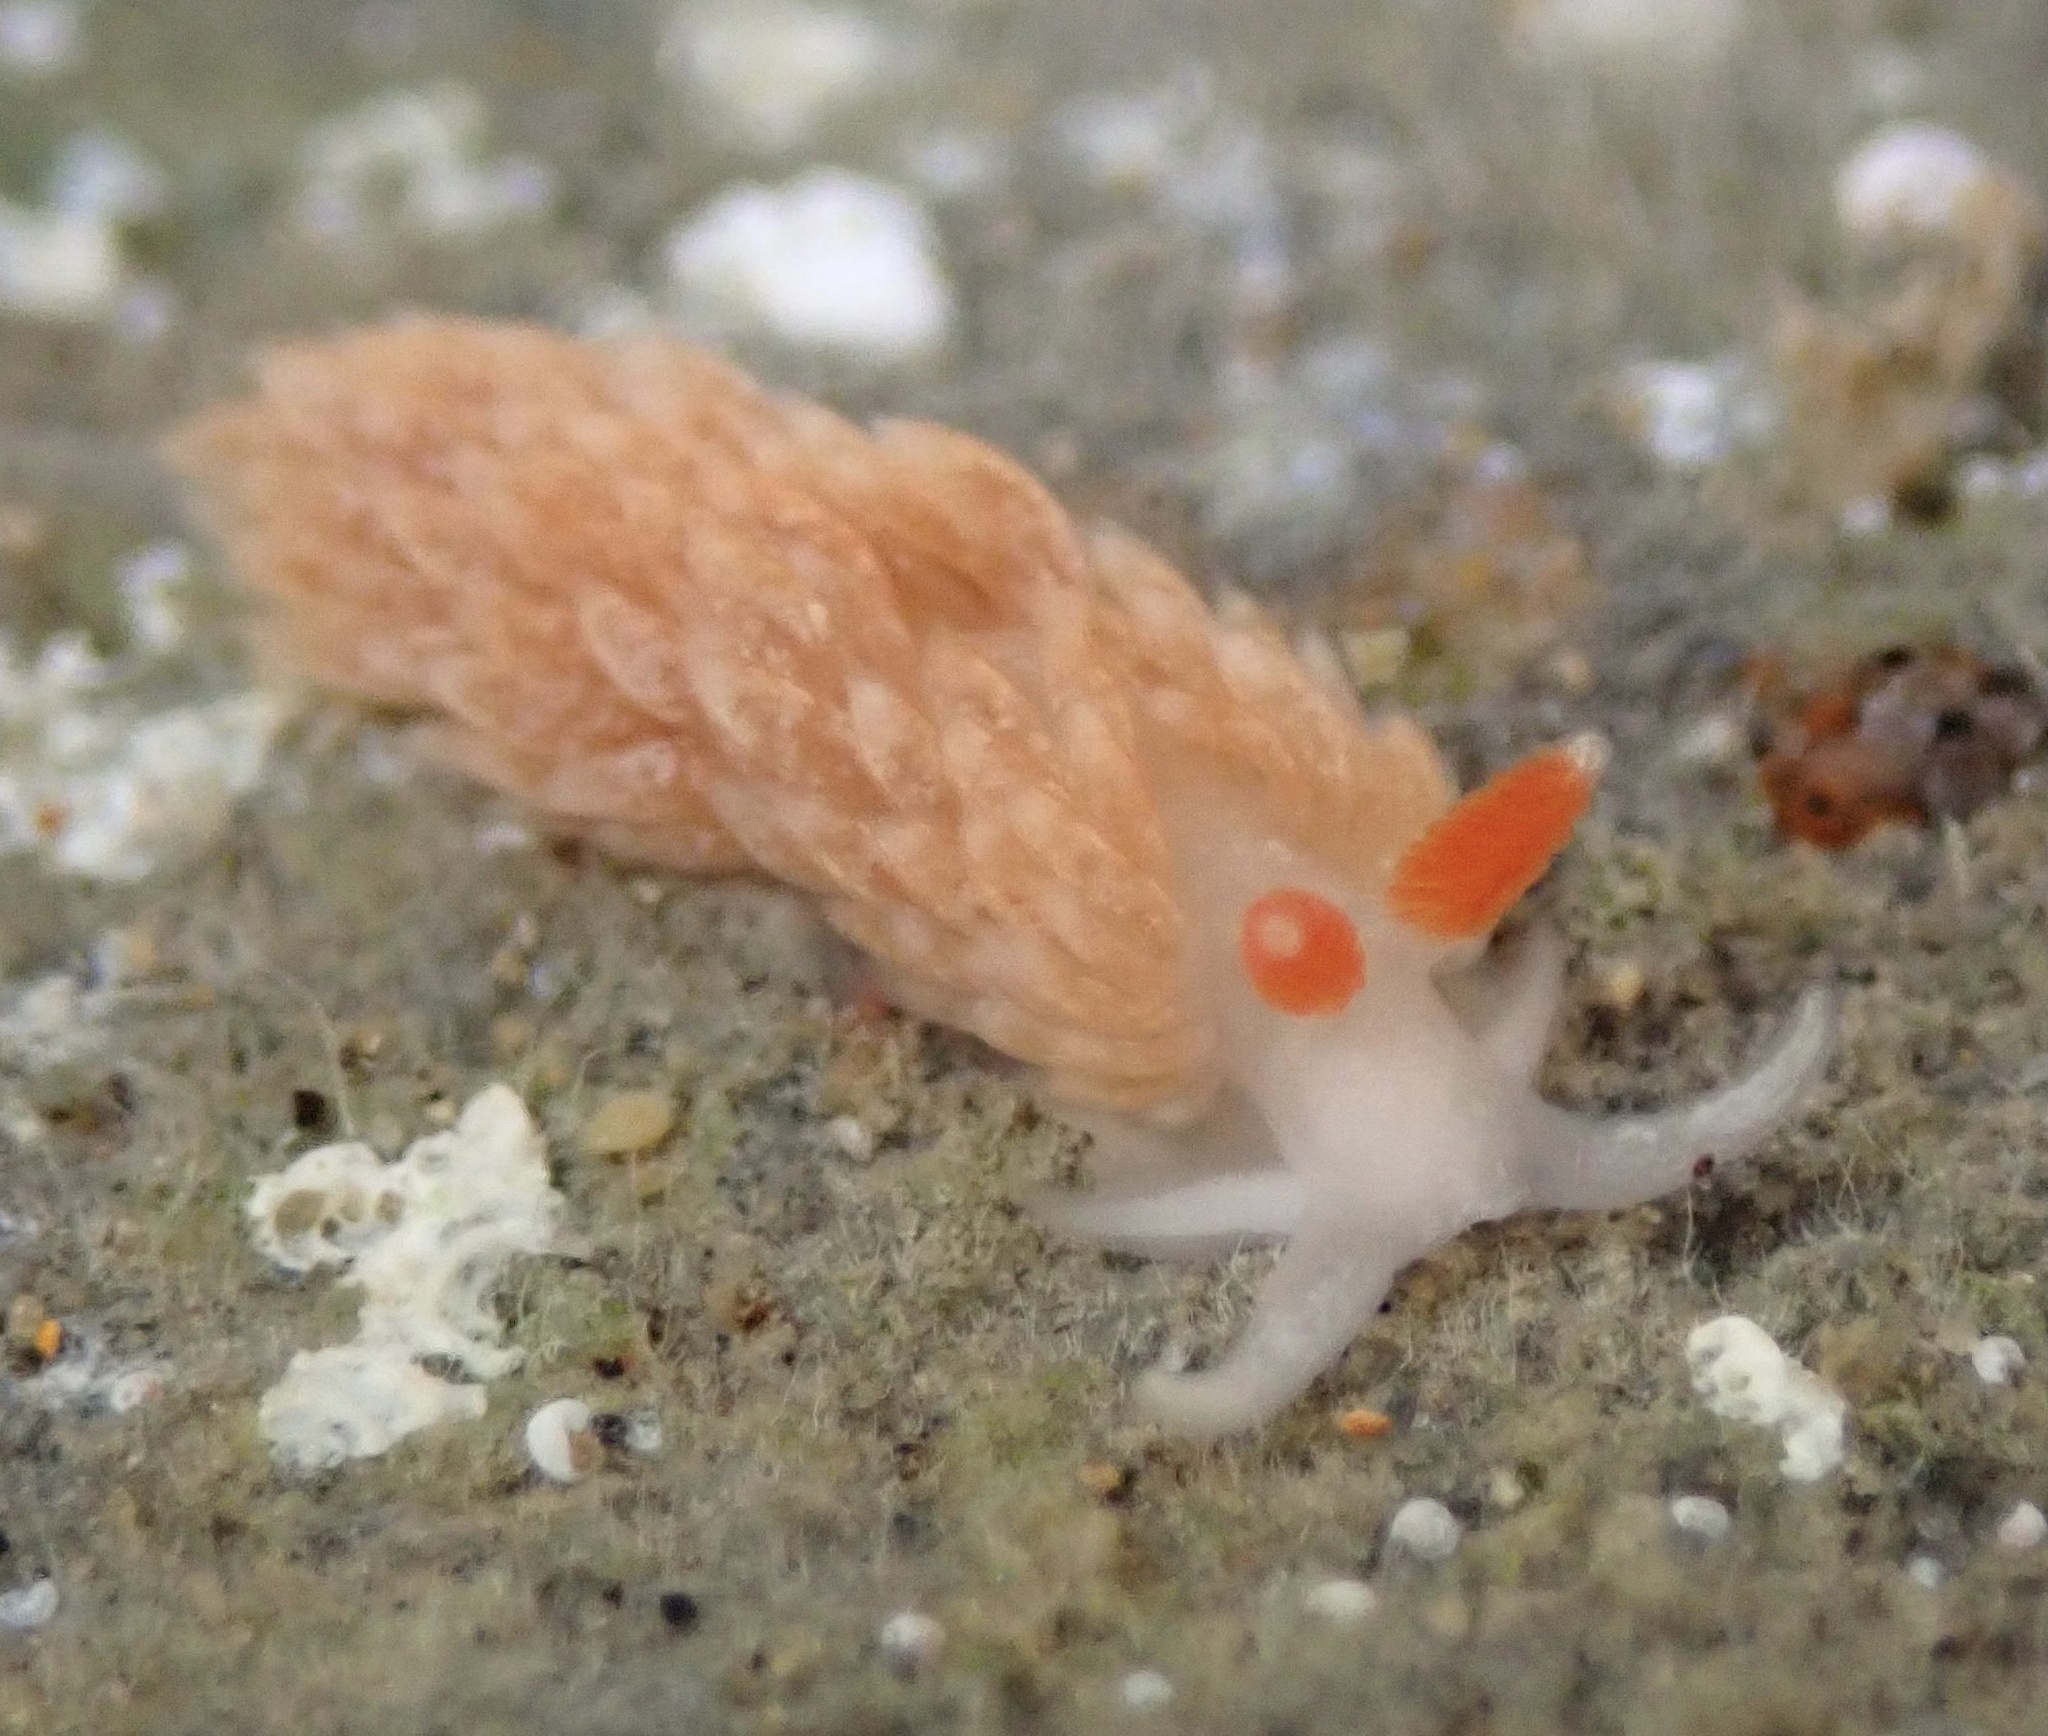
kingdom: Animalia
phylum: Mollusca
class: Gastropoda
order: Nudibranchia
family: Aeolidiidae
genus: Anteaeolidiella
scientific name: Anteaeolidiella oliviae
